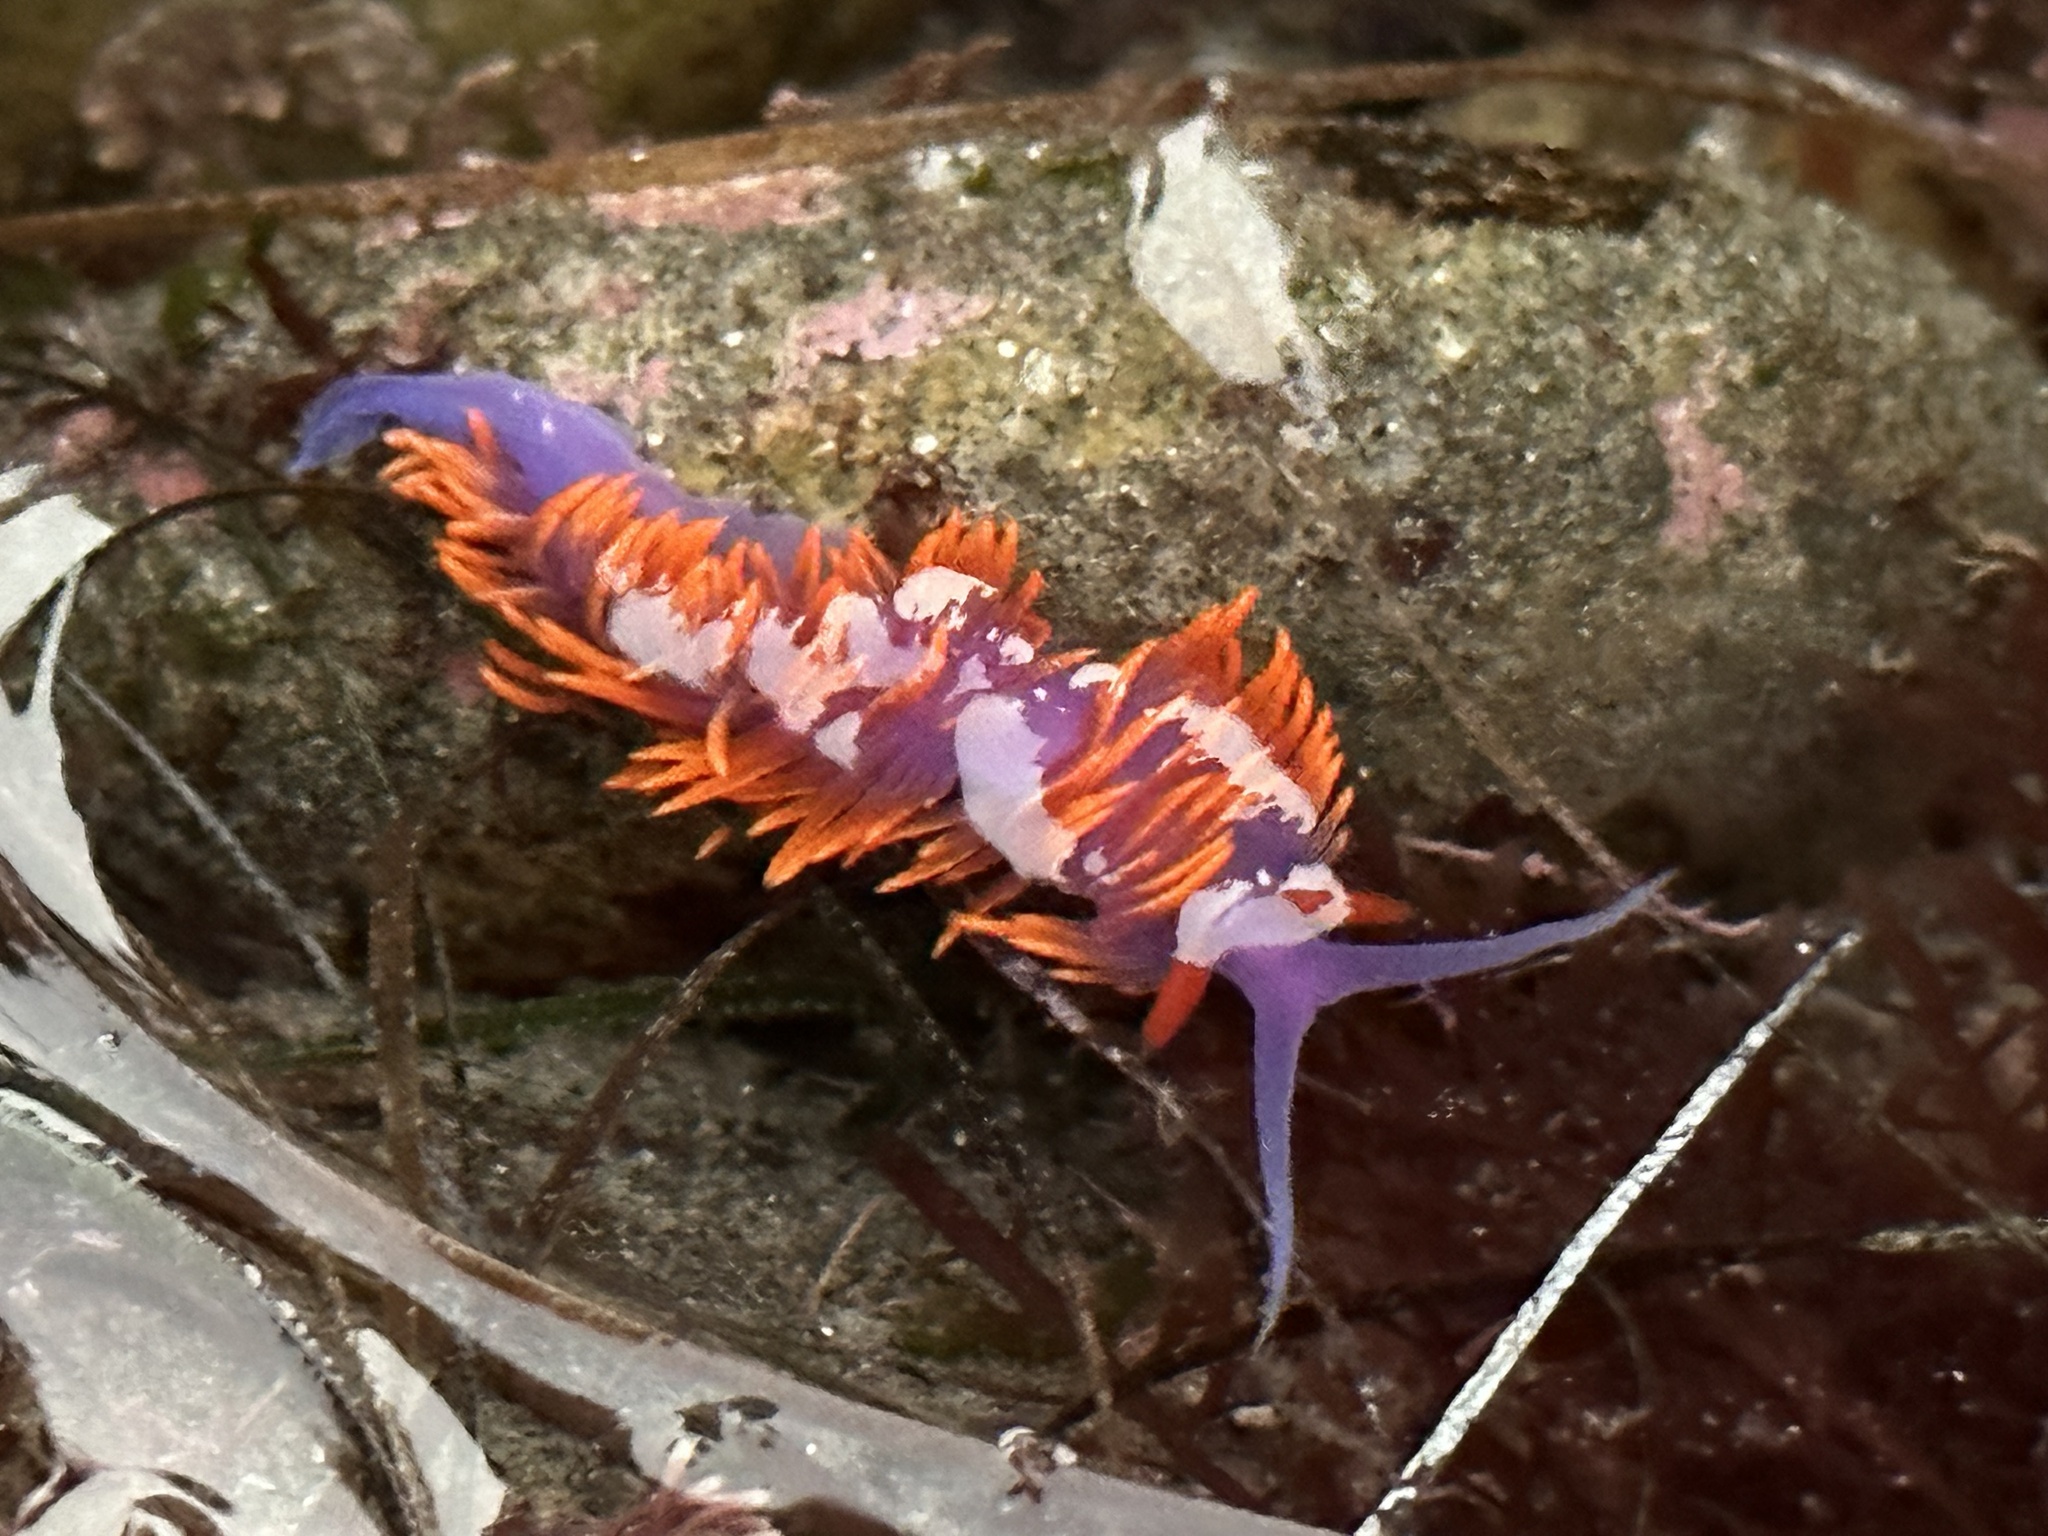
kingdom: Animalia
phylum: Mollusca
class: Gastropoda
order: Nudibranchia
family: Flabellinopsidae
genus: Flabellinopsis
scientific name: Flabellinopsis iodinea
